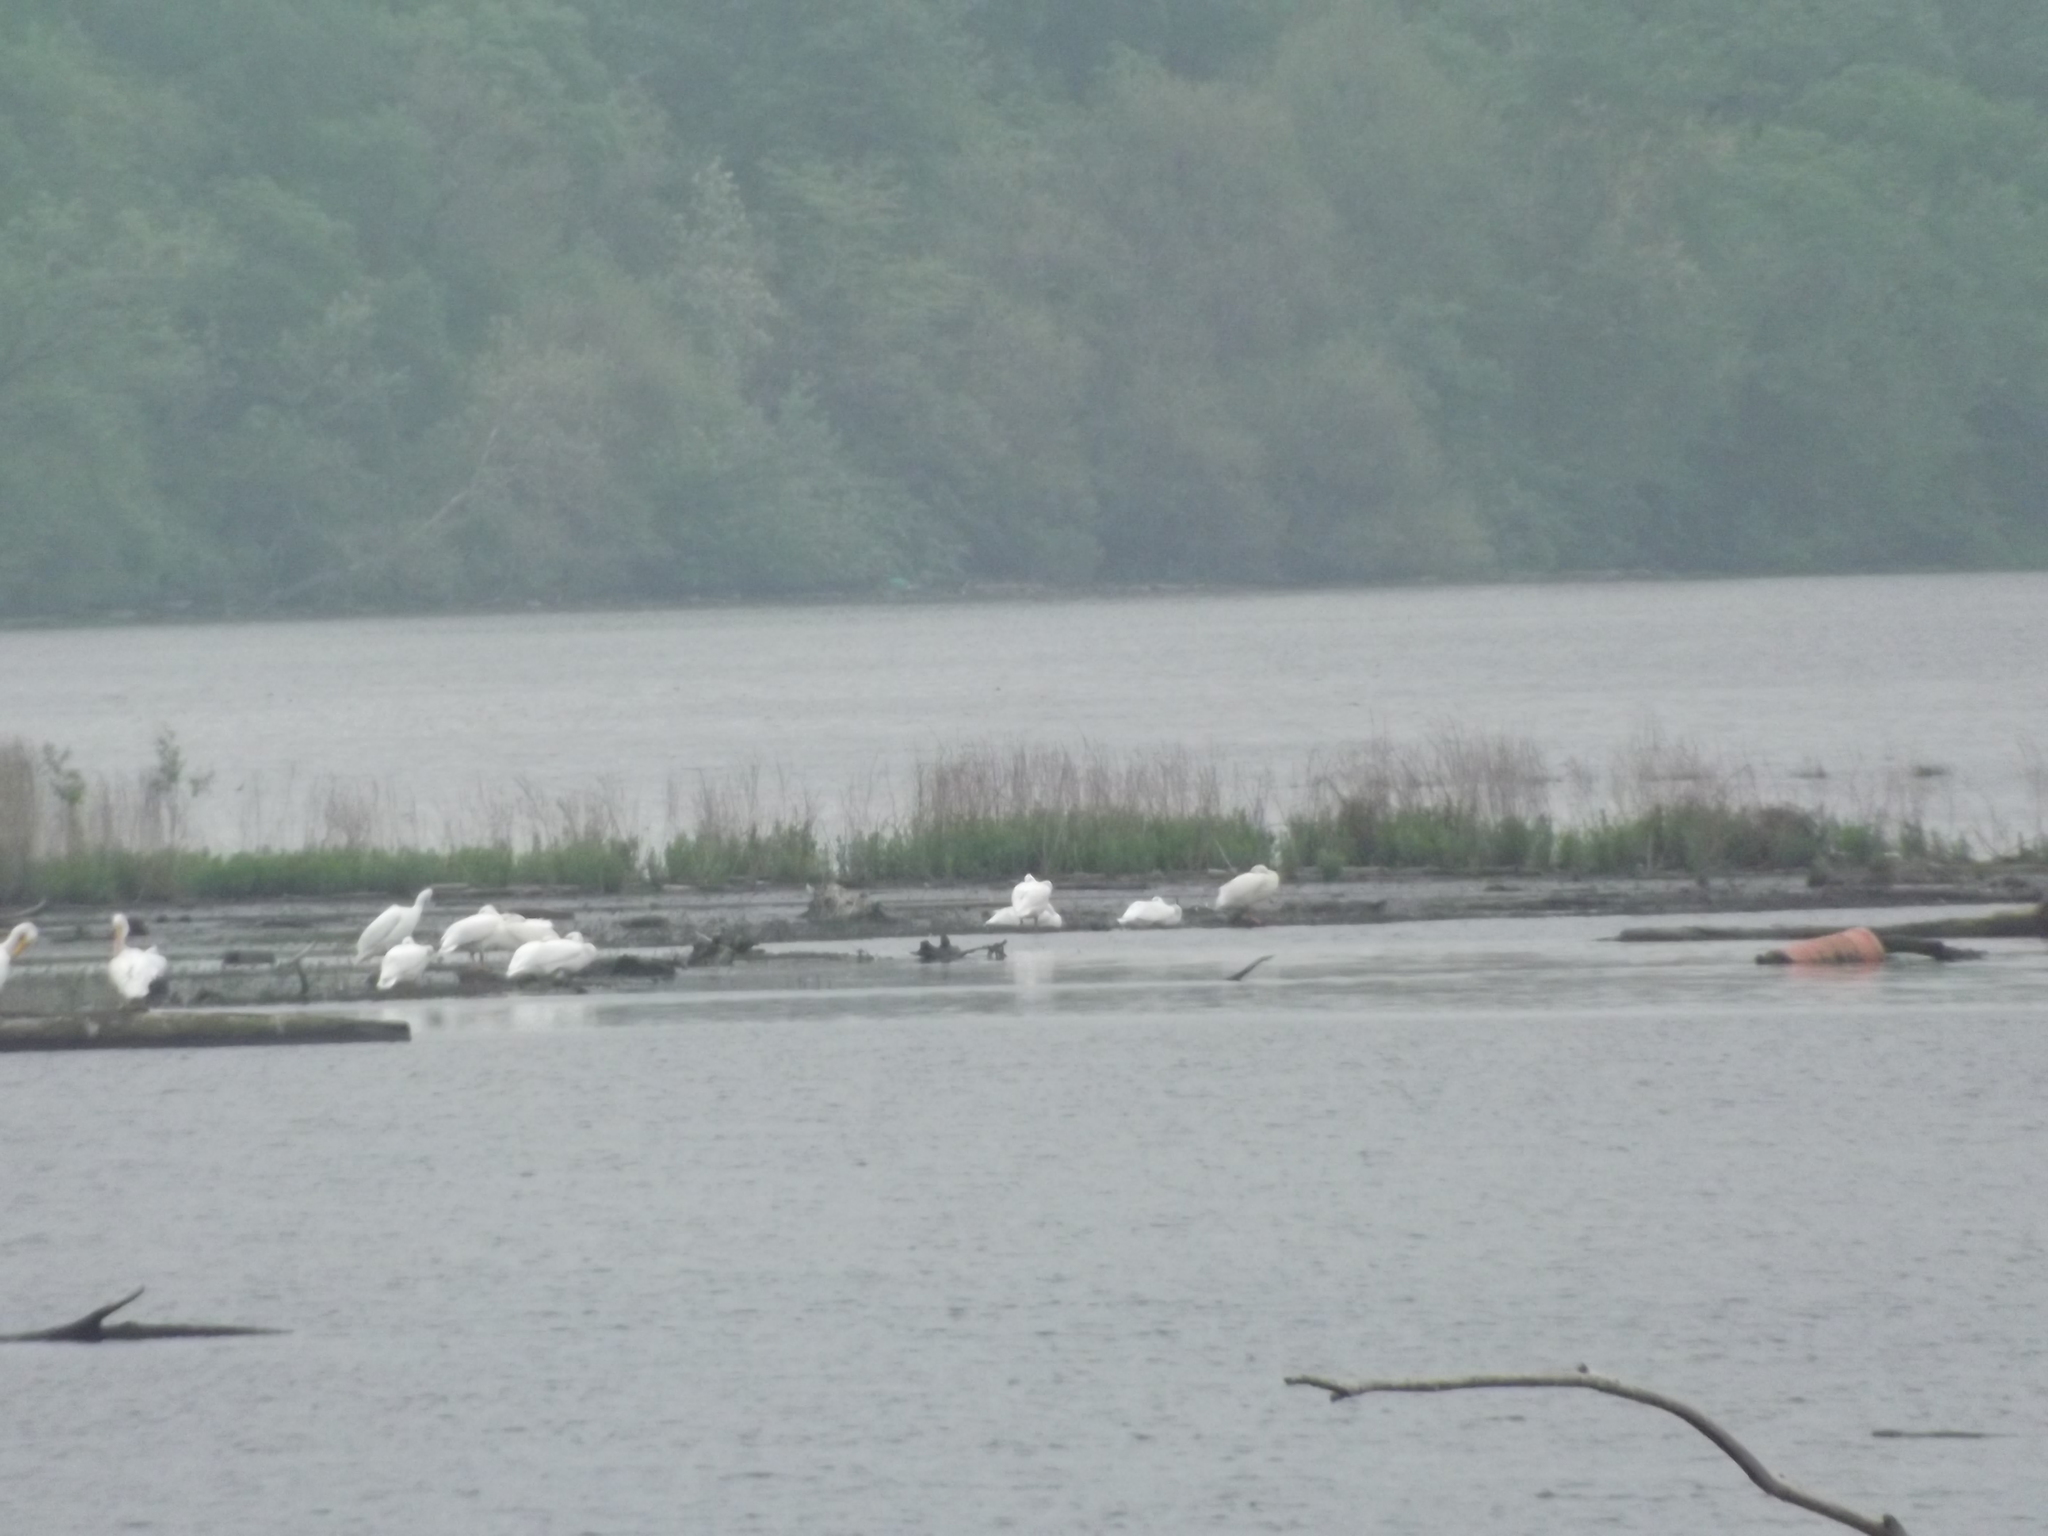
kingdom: Animalia
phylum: Chordata
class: Aves
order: Pelecaniformes
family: Pelecanidae
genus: Pelecanus
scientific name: Pelecanus erythrorhynchos
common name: American white pelican
